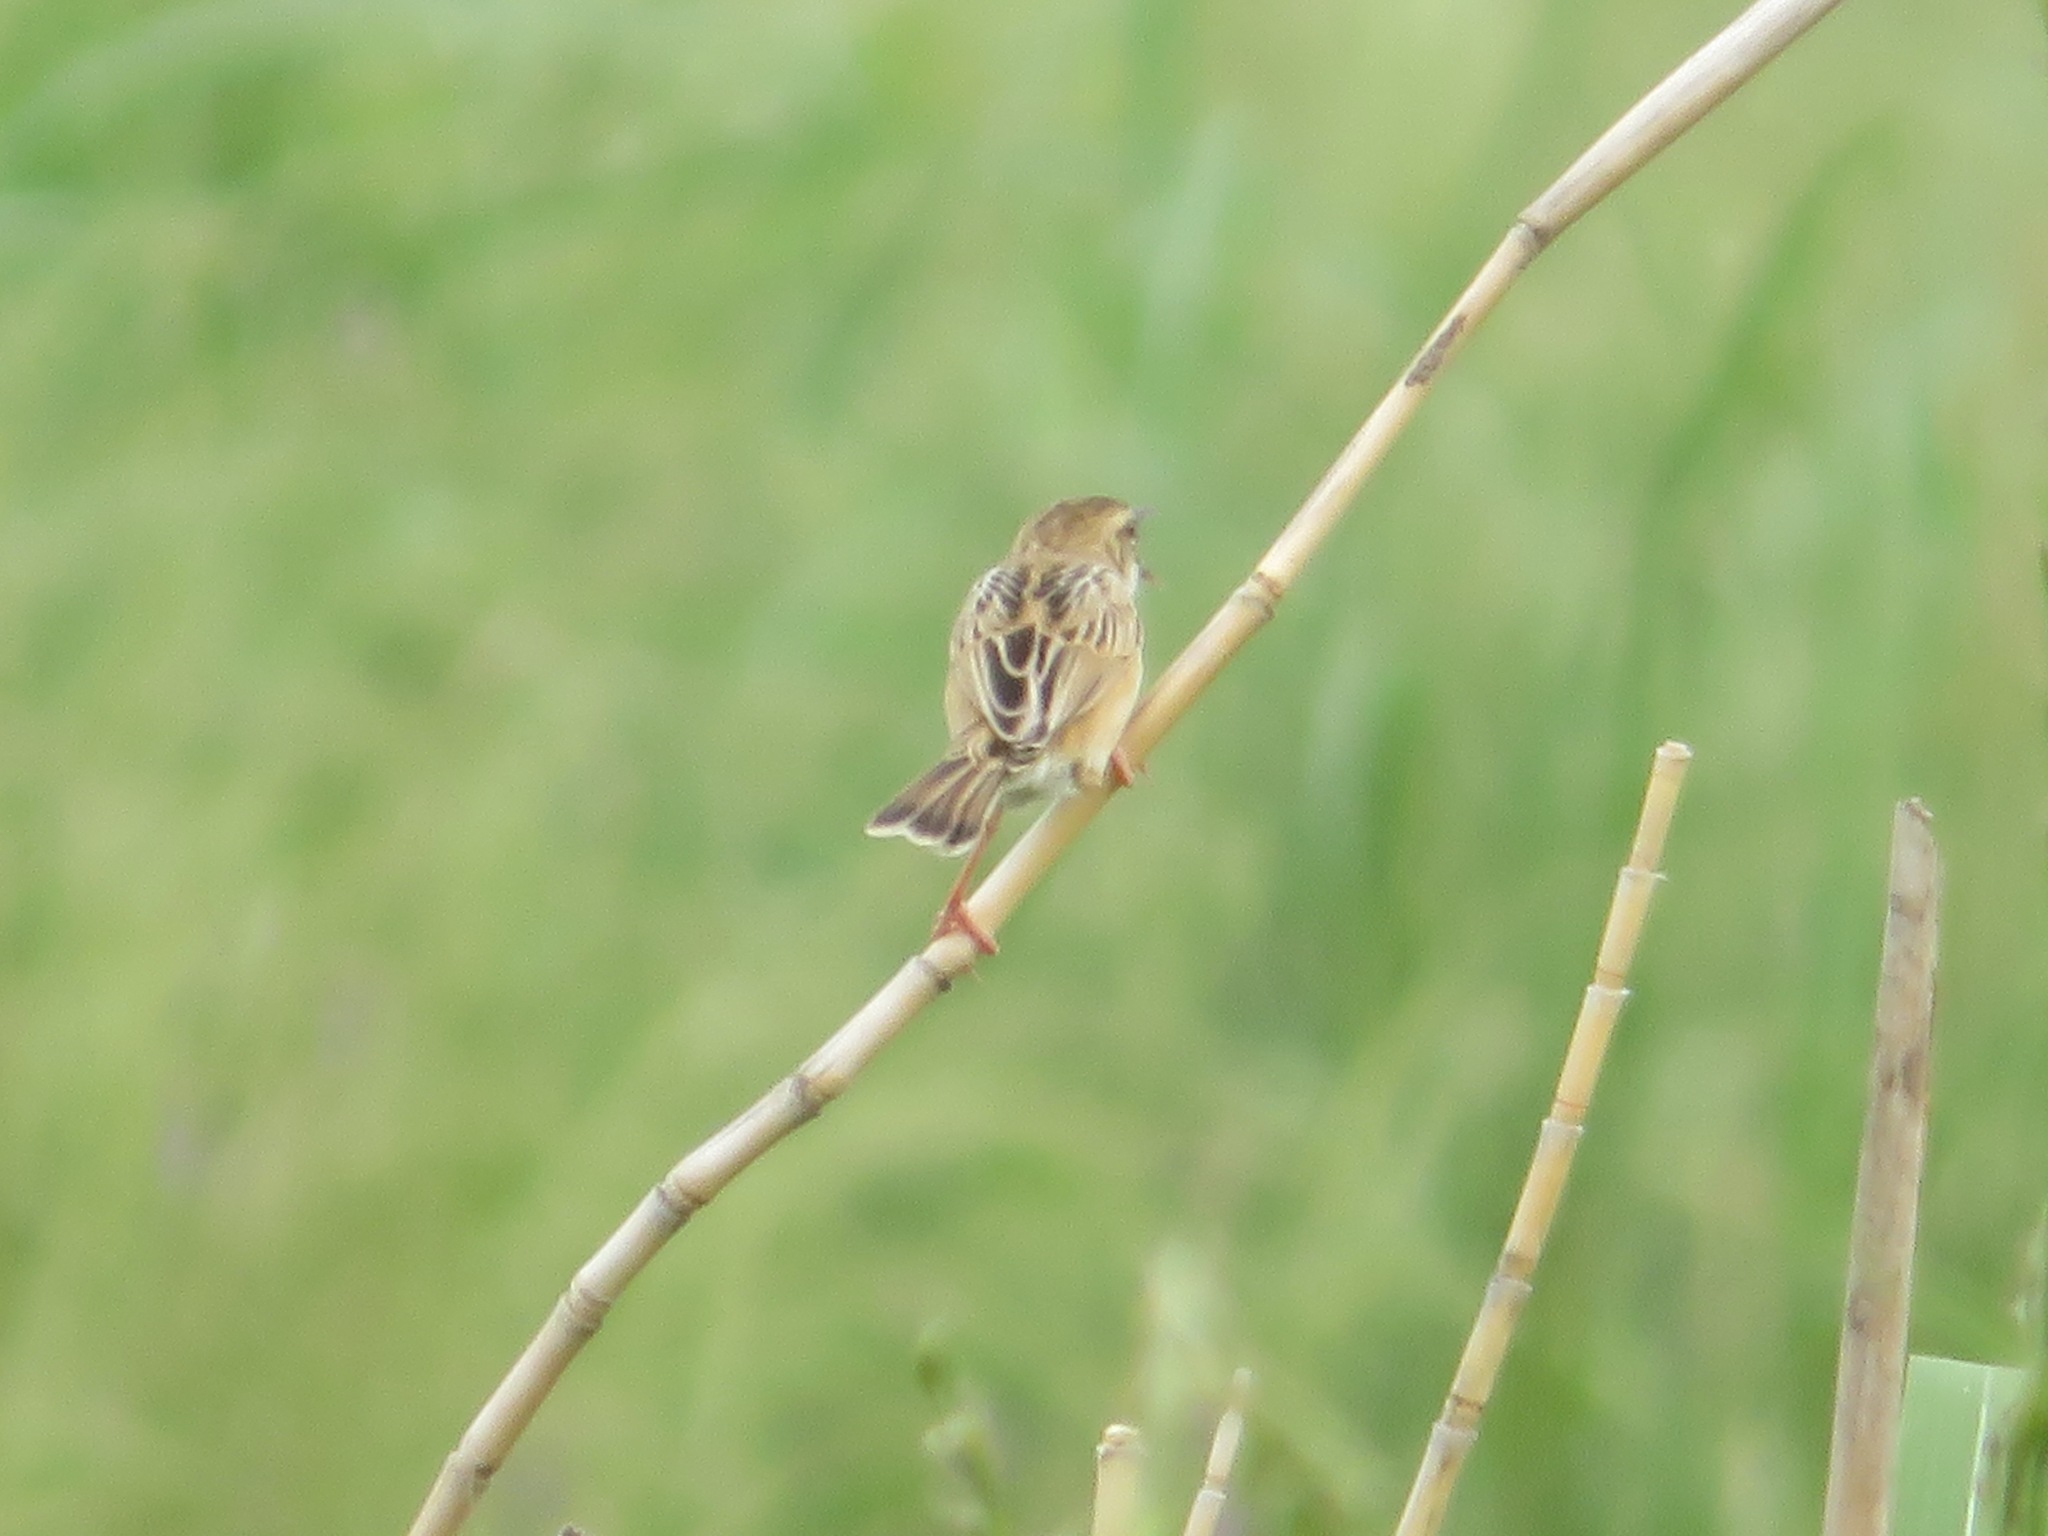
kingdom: Animalia
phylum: Chordata
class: Aves
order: Passeriformes
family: Cisticolidae
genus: Cisticola
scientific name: Cisticola juncidis
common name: Zitting cisticola
